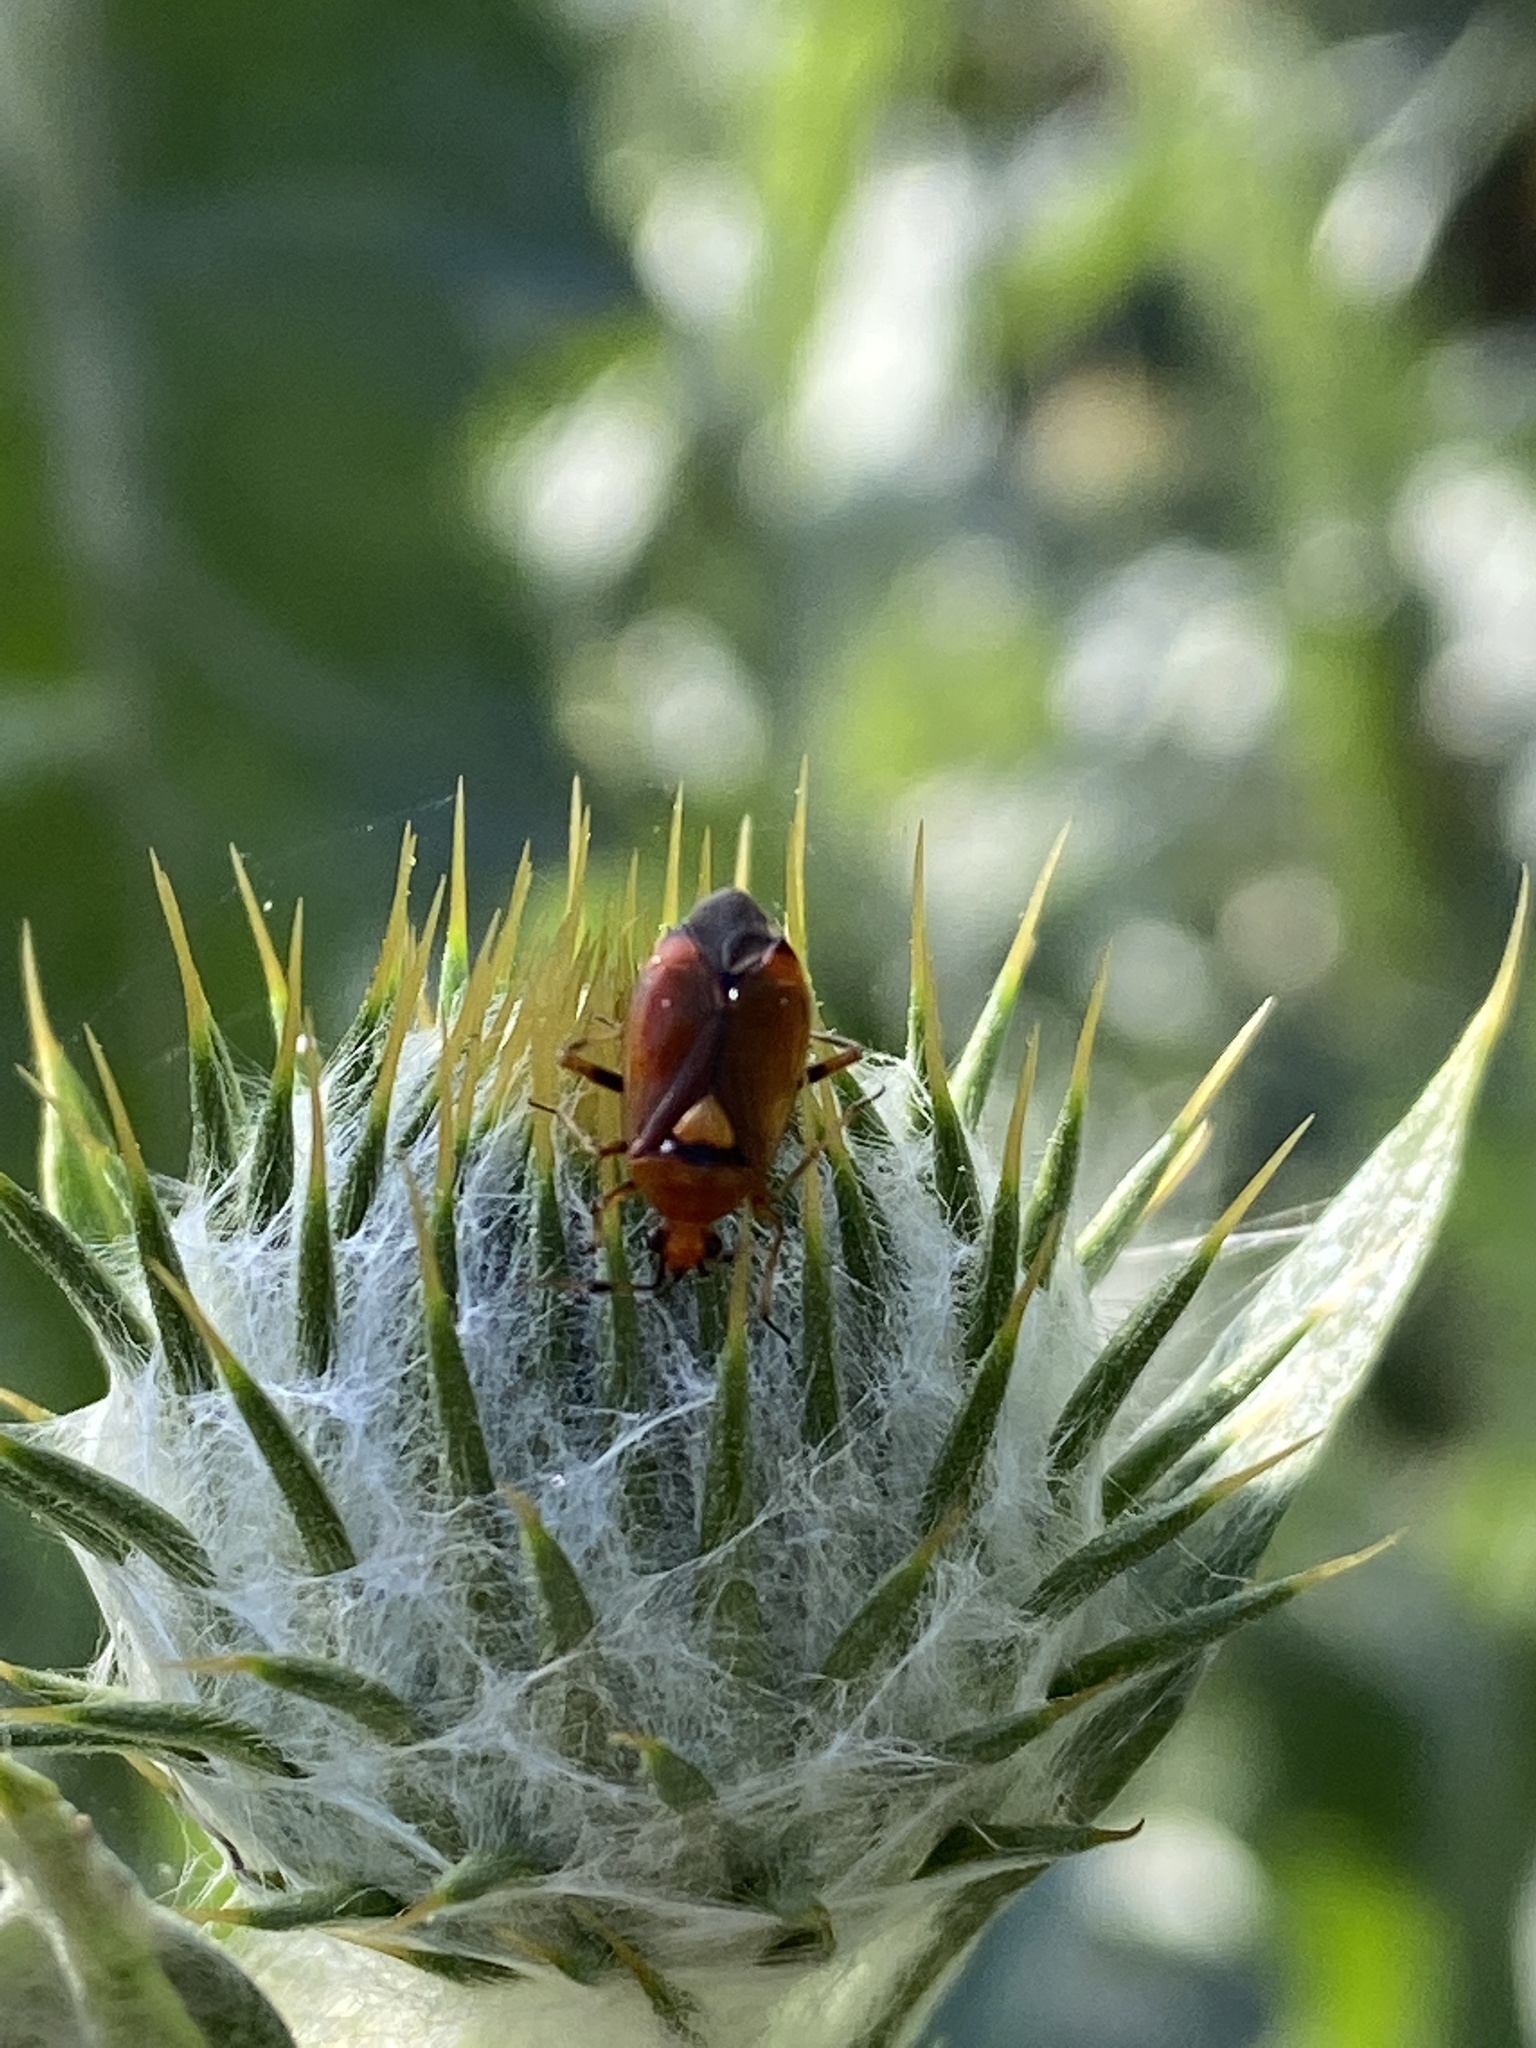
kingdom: Animalia
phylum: Arthropoda
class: Insecta
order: Hemiptera
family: Miridae
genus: Deraeocoris
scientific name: Deraeocoris ruber
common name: Plant bug
